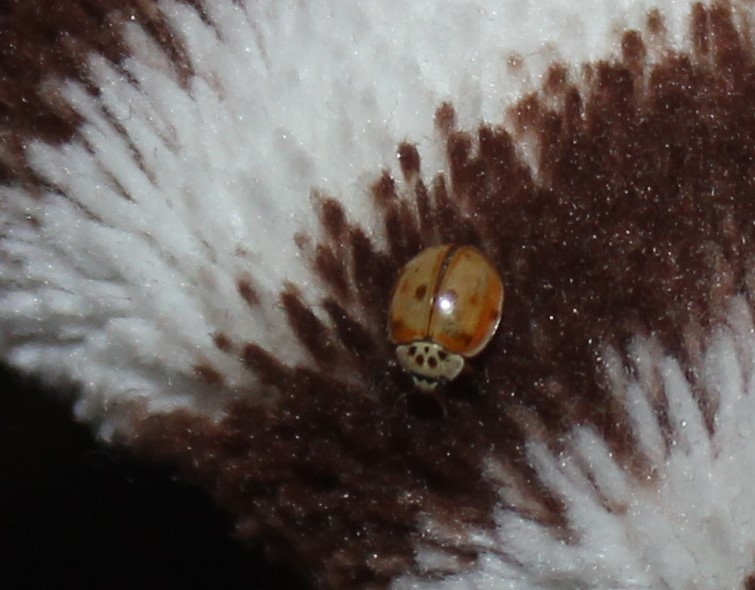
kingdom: Animalia
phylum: Arthropoda
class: Insecta
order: Coleoptera
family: Coccinellidae
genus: Harmonia
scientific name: Harmonia quadripunctata
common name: Cream-streaked ladybird
